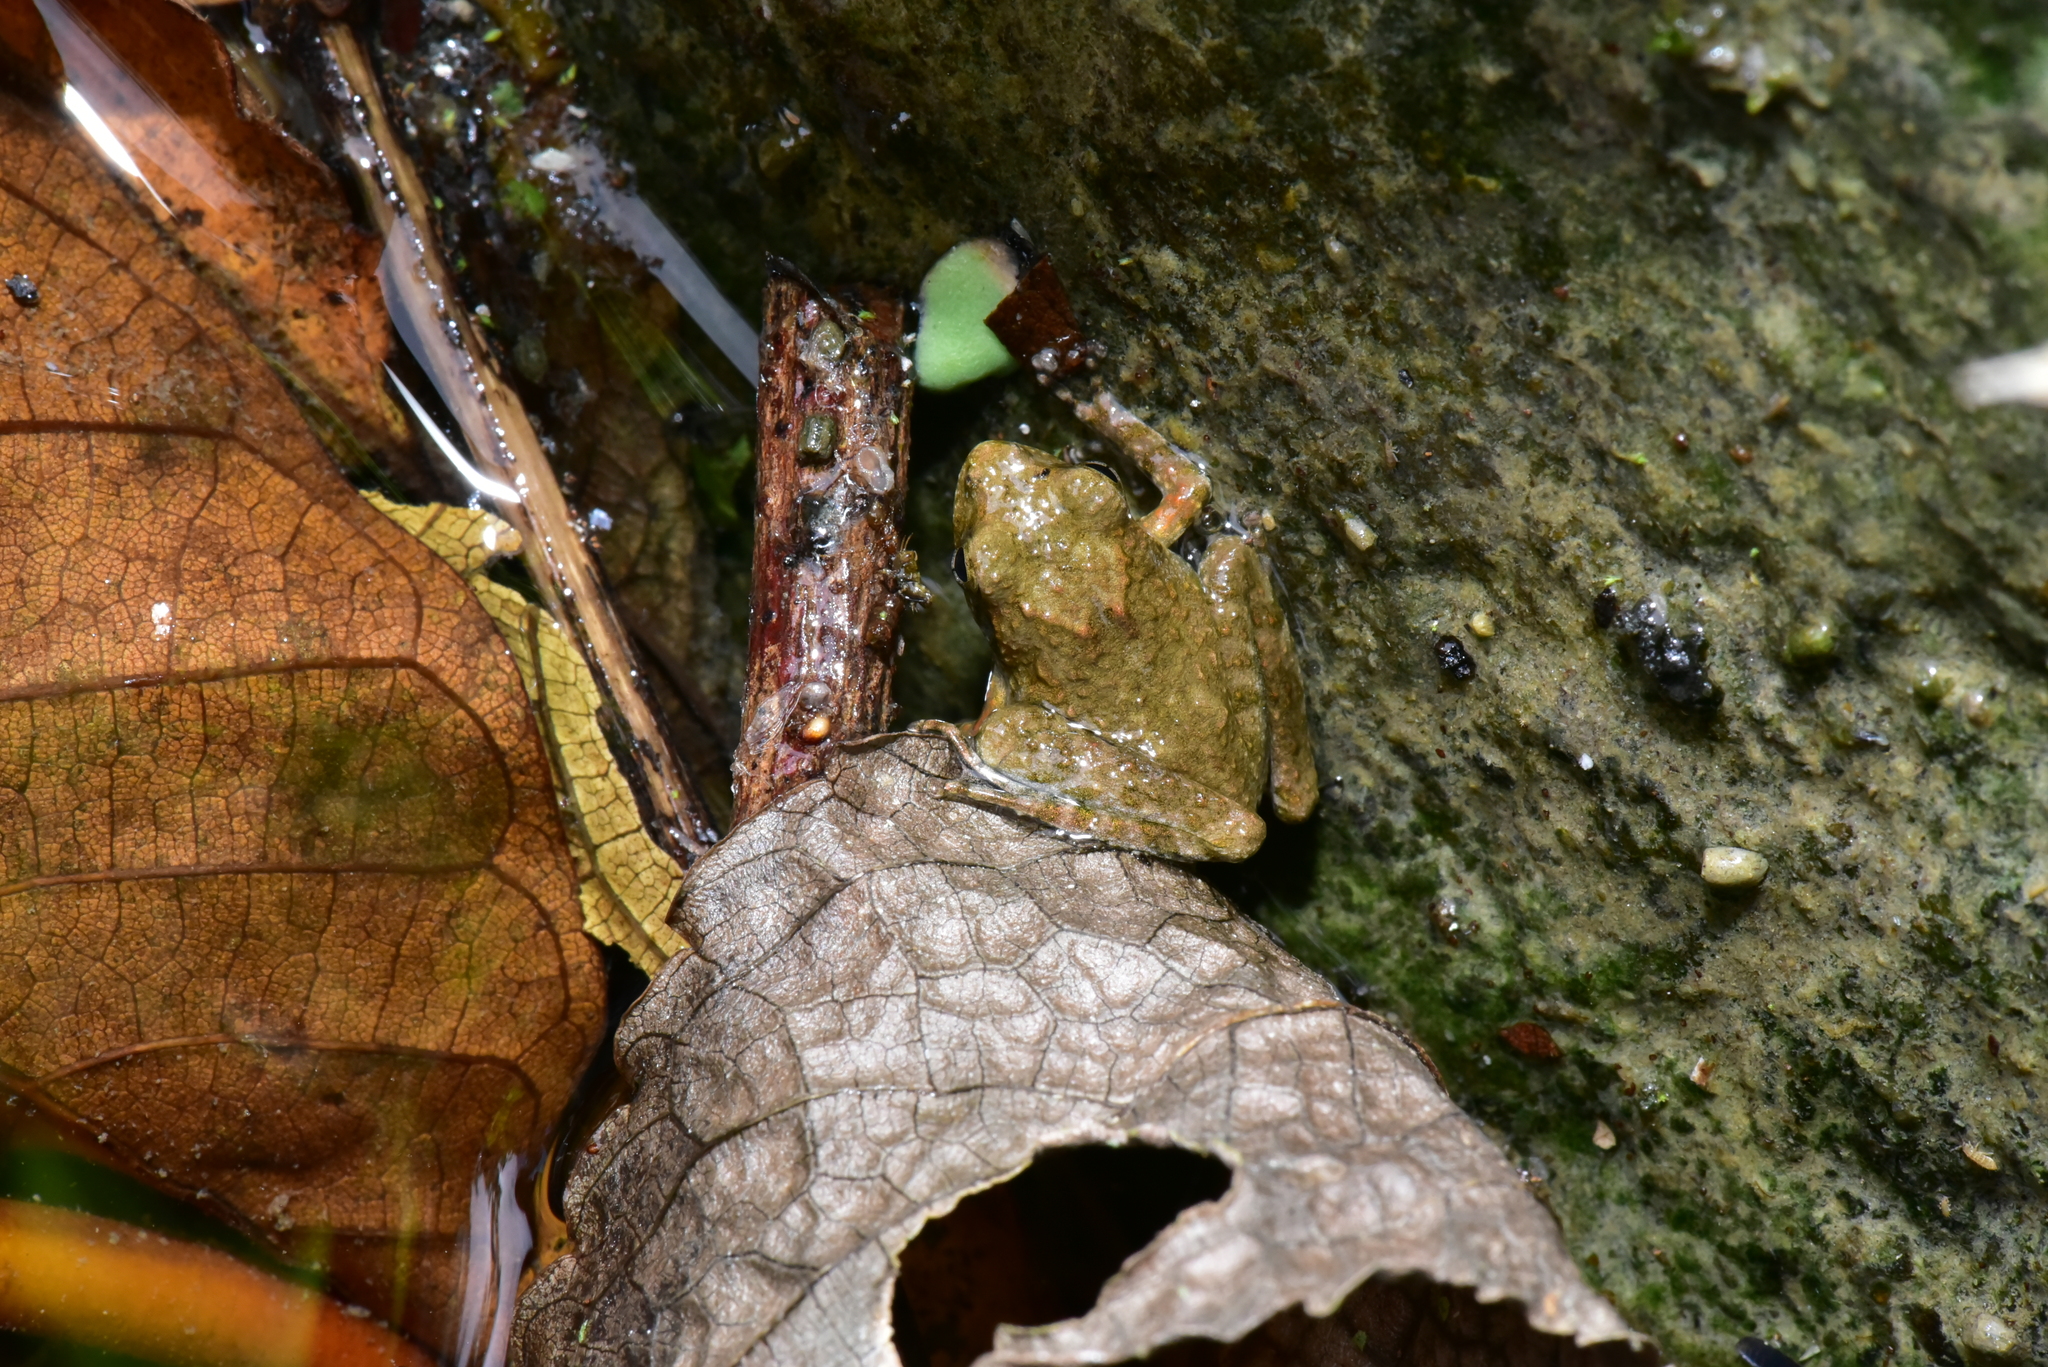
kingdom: Animalia
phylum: Chordata
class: Amphibia
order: Anura
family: Rhacophoridae
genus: Buergeria
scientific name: Buergeria otai
